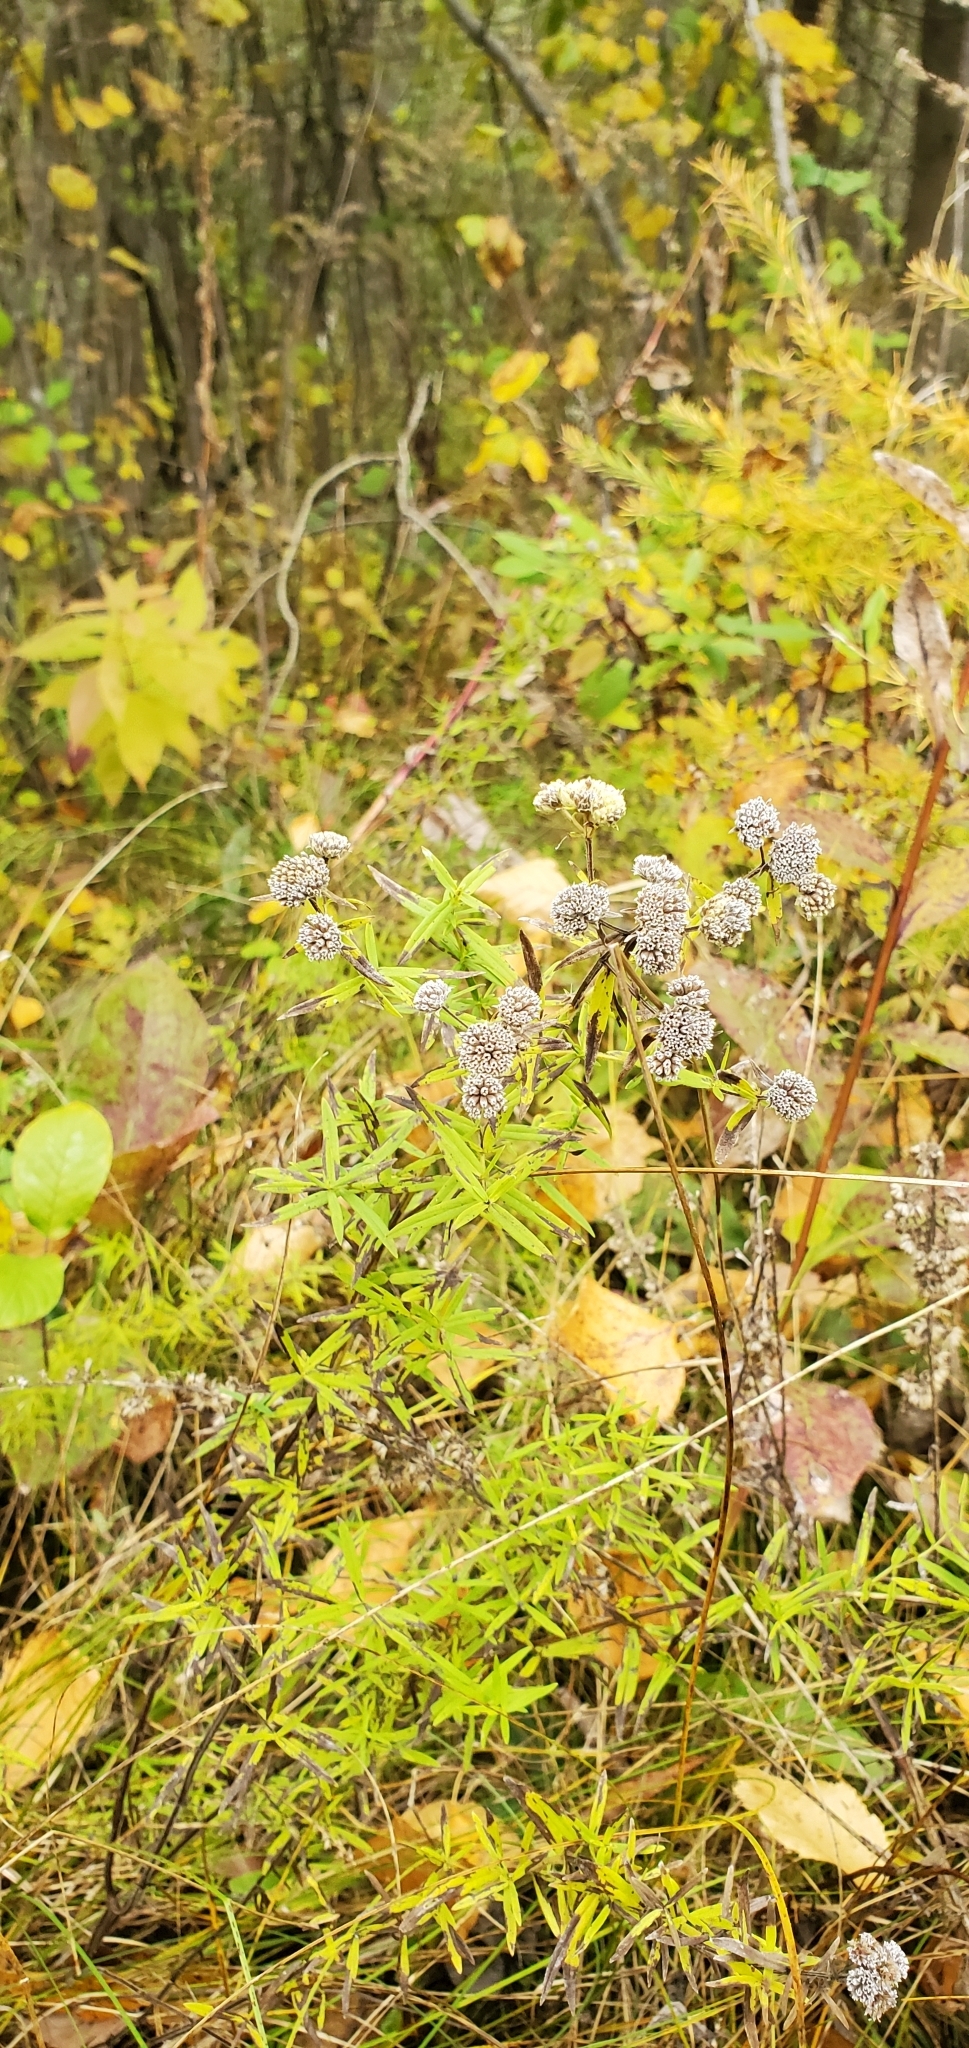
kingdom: Plantae
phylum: Tracheophyta
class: Magnoliopsida
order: Lamiales
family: Lamiaceae
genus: Pycnanthemum
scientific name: Pycnanthemum virginianum
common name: Virginia mountain-mint
